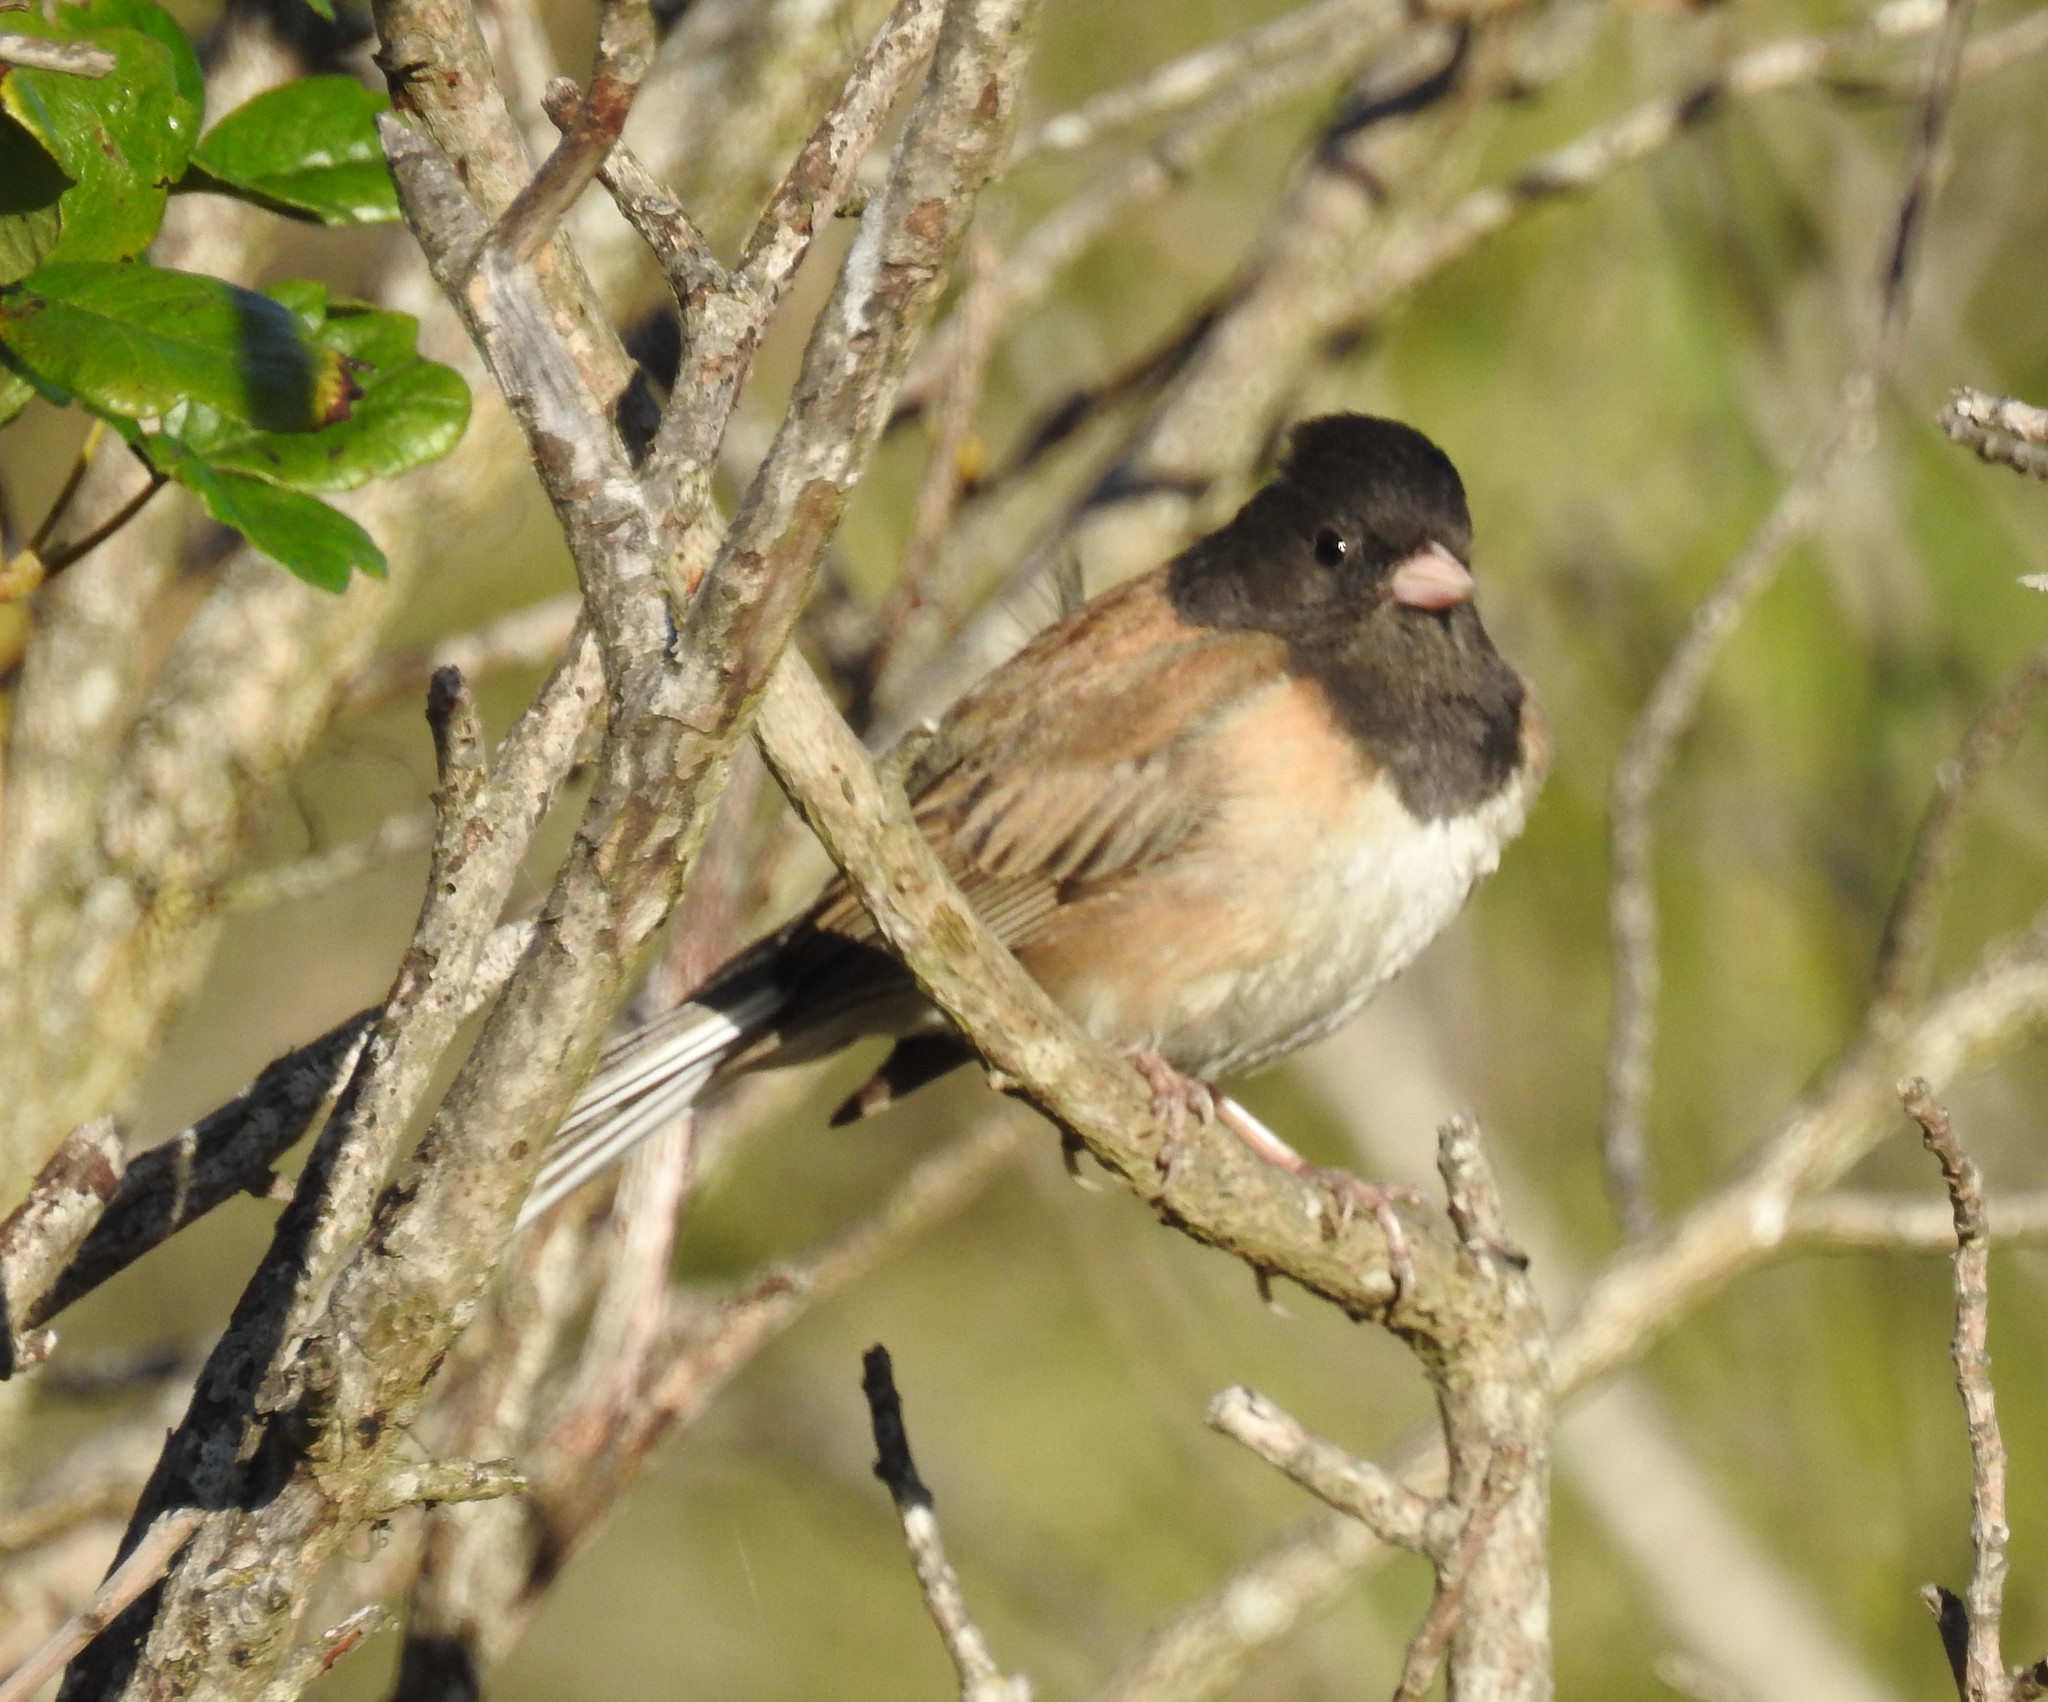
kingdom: Animalia
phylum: Chordata
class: Aves
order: Passeriformes
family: Passerellidae
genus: Junco
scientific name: Junco hyemalis
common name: Dark-eyed junco
